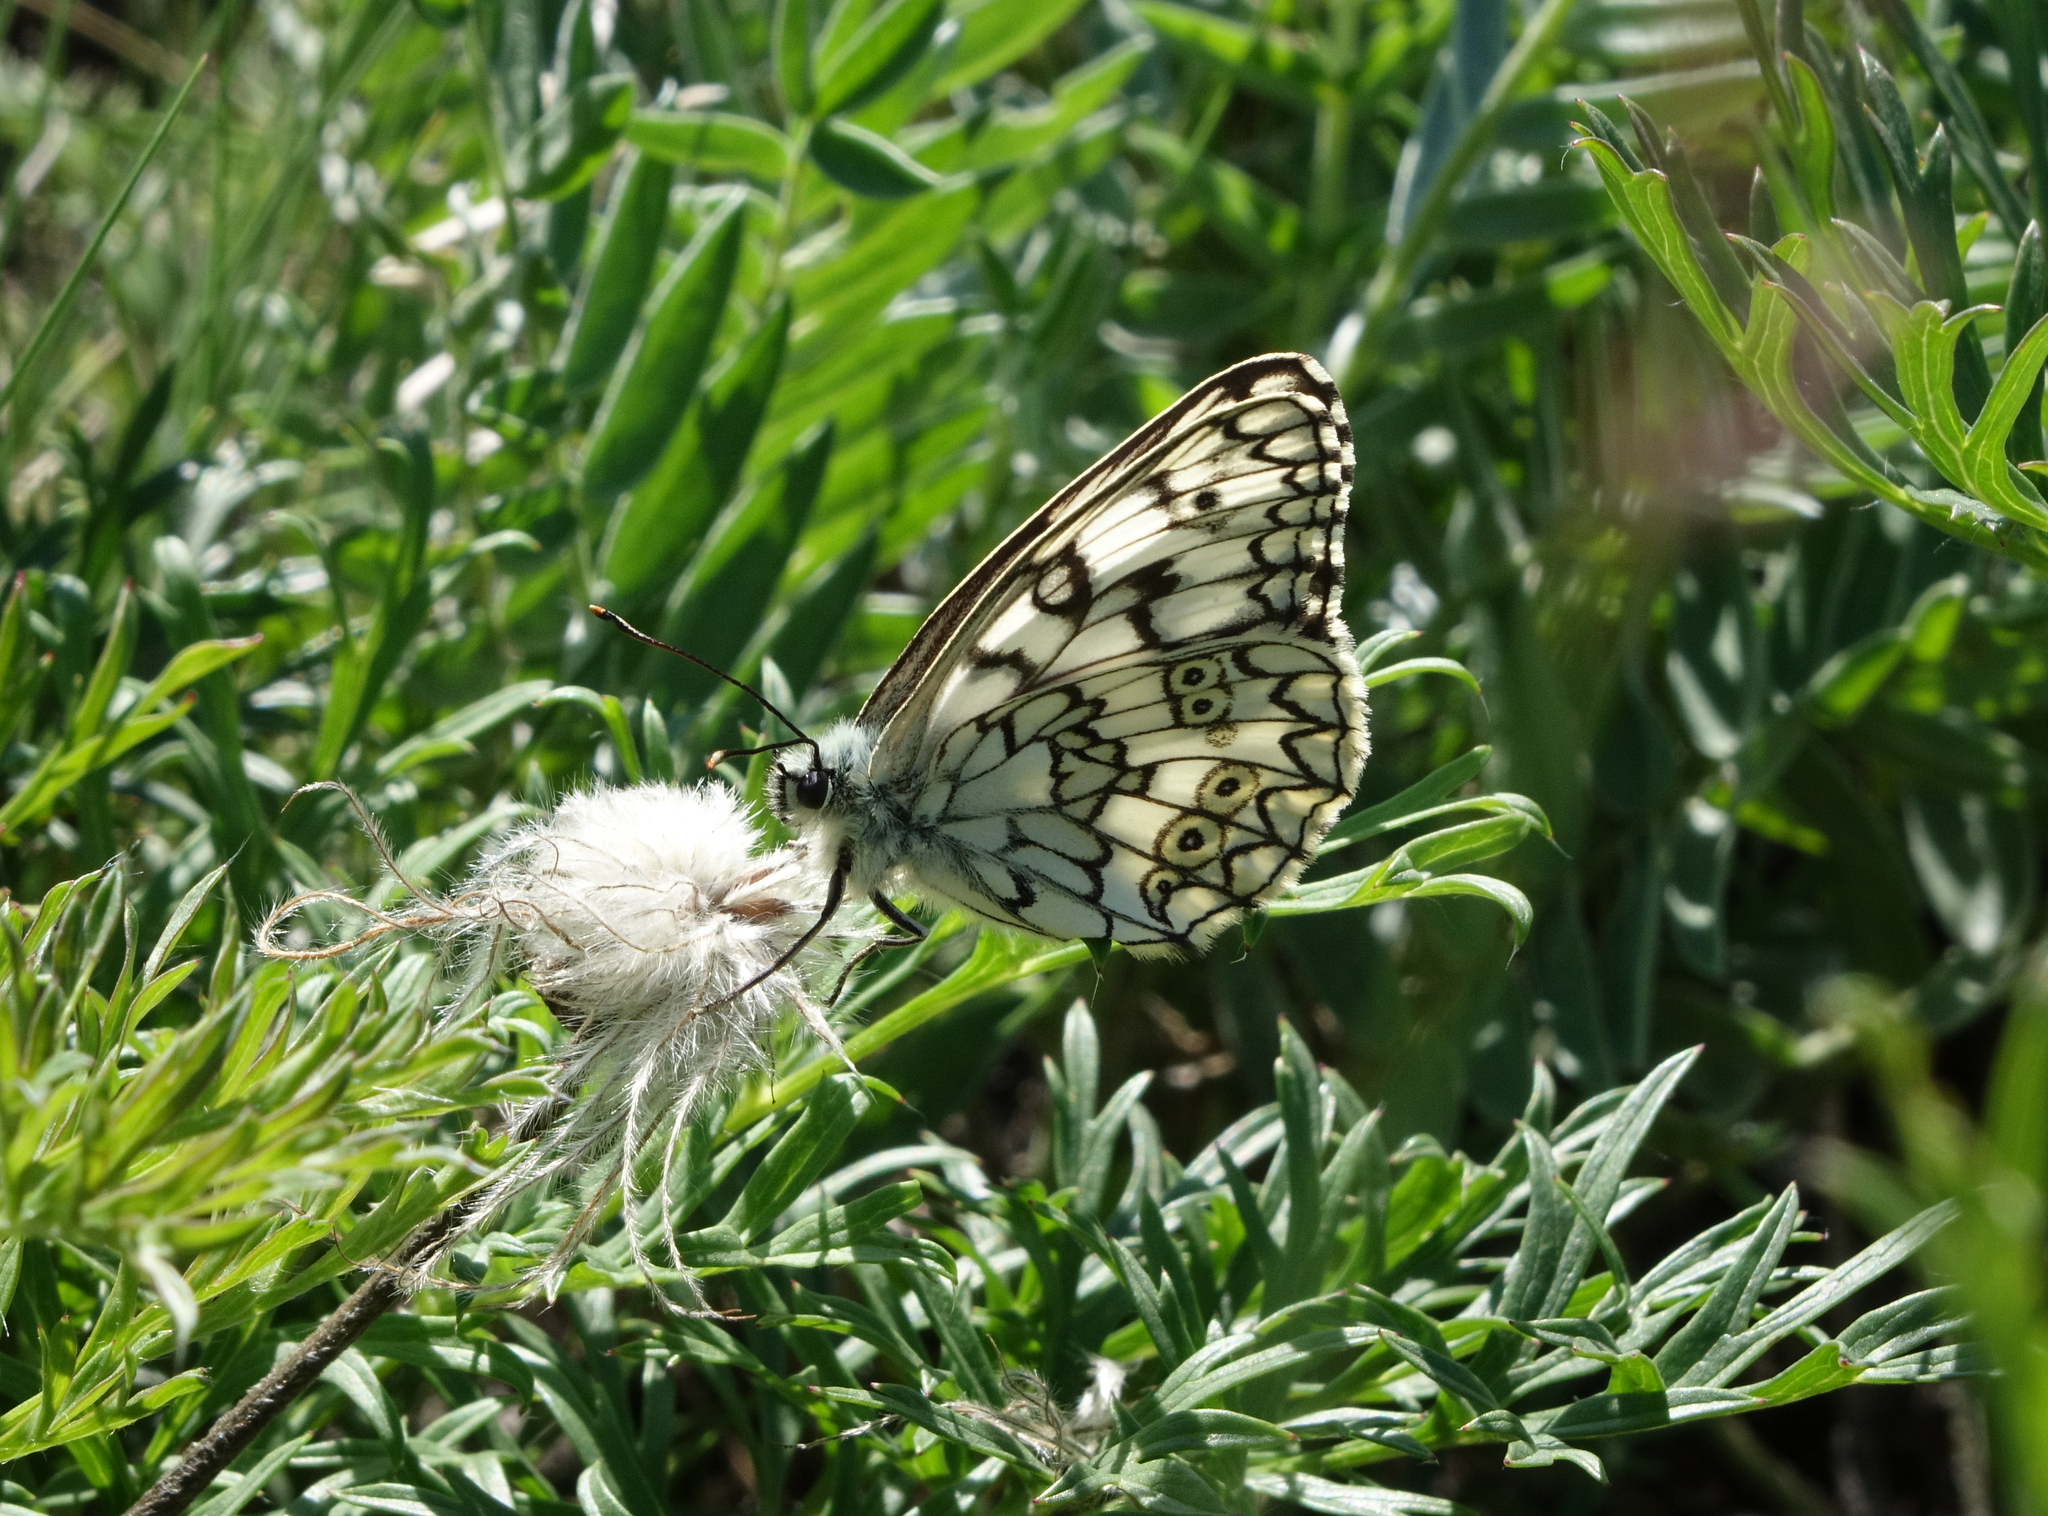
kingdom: Animalia
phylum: Arthropoda
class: Insecta
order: Lepidoptera
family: Nymphalidae
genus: Melanargia
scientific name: Melanargia japygia
